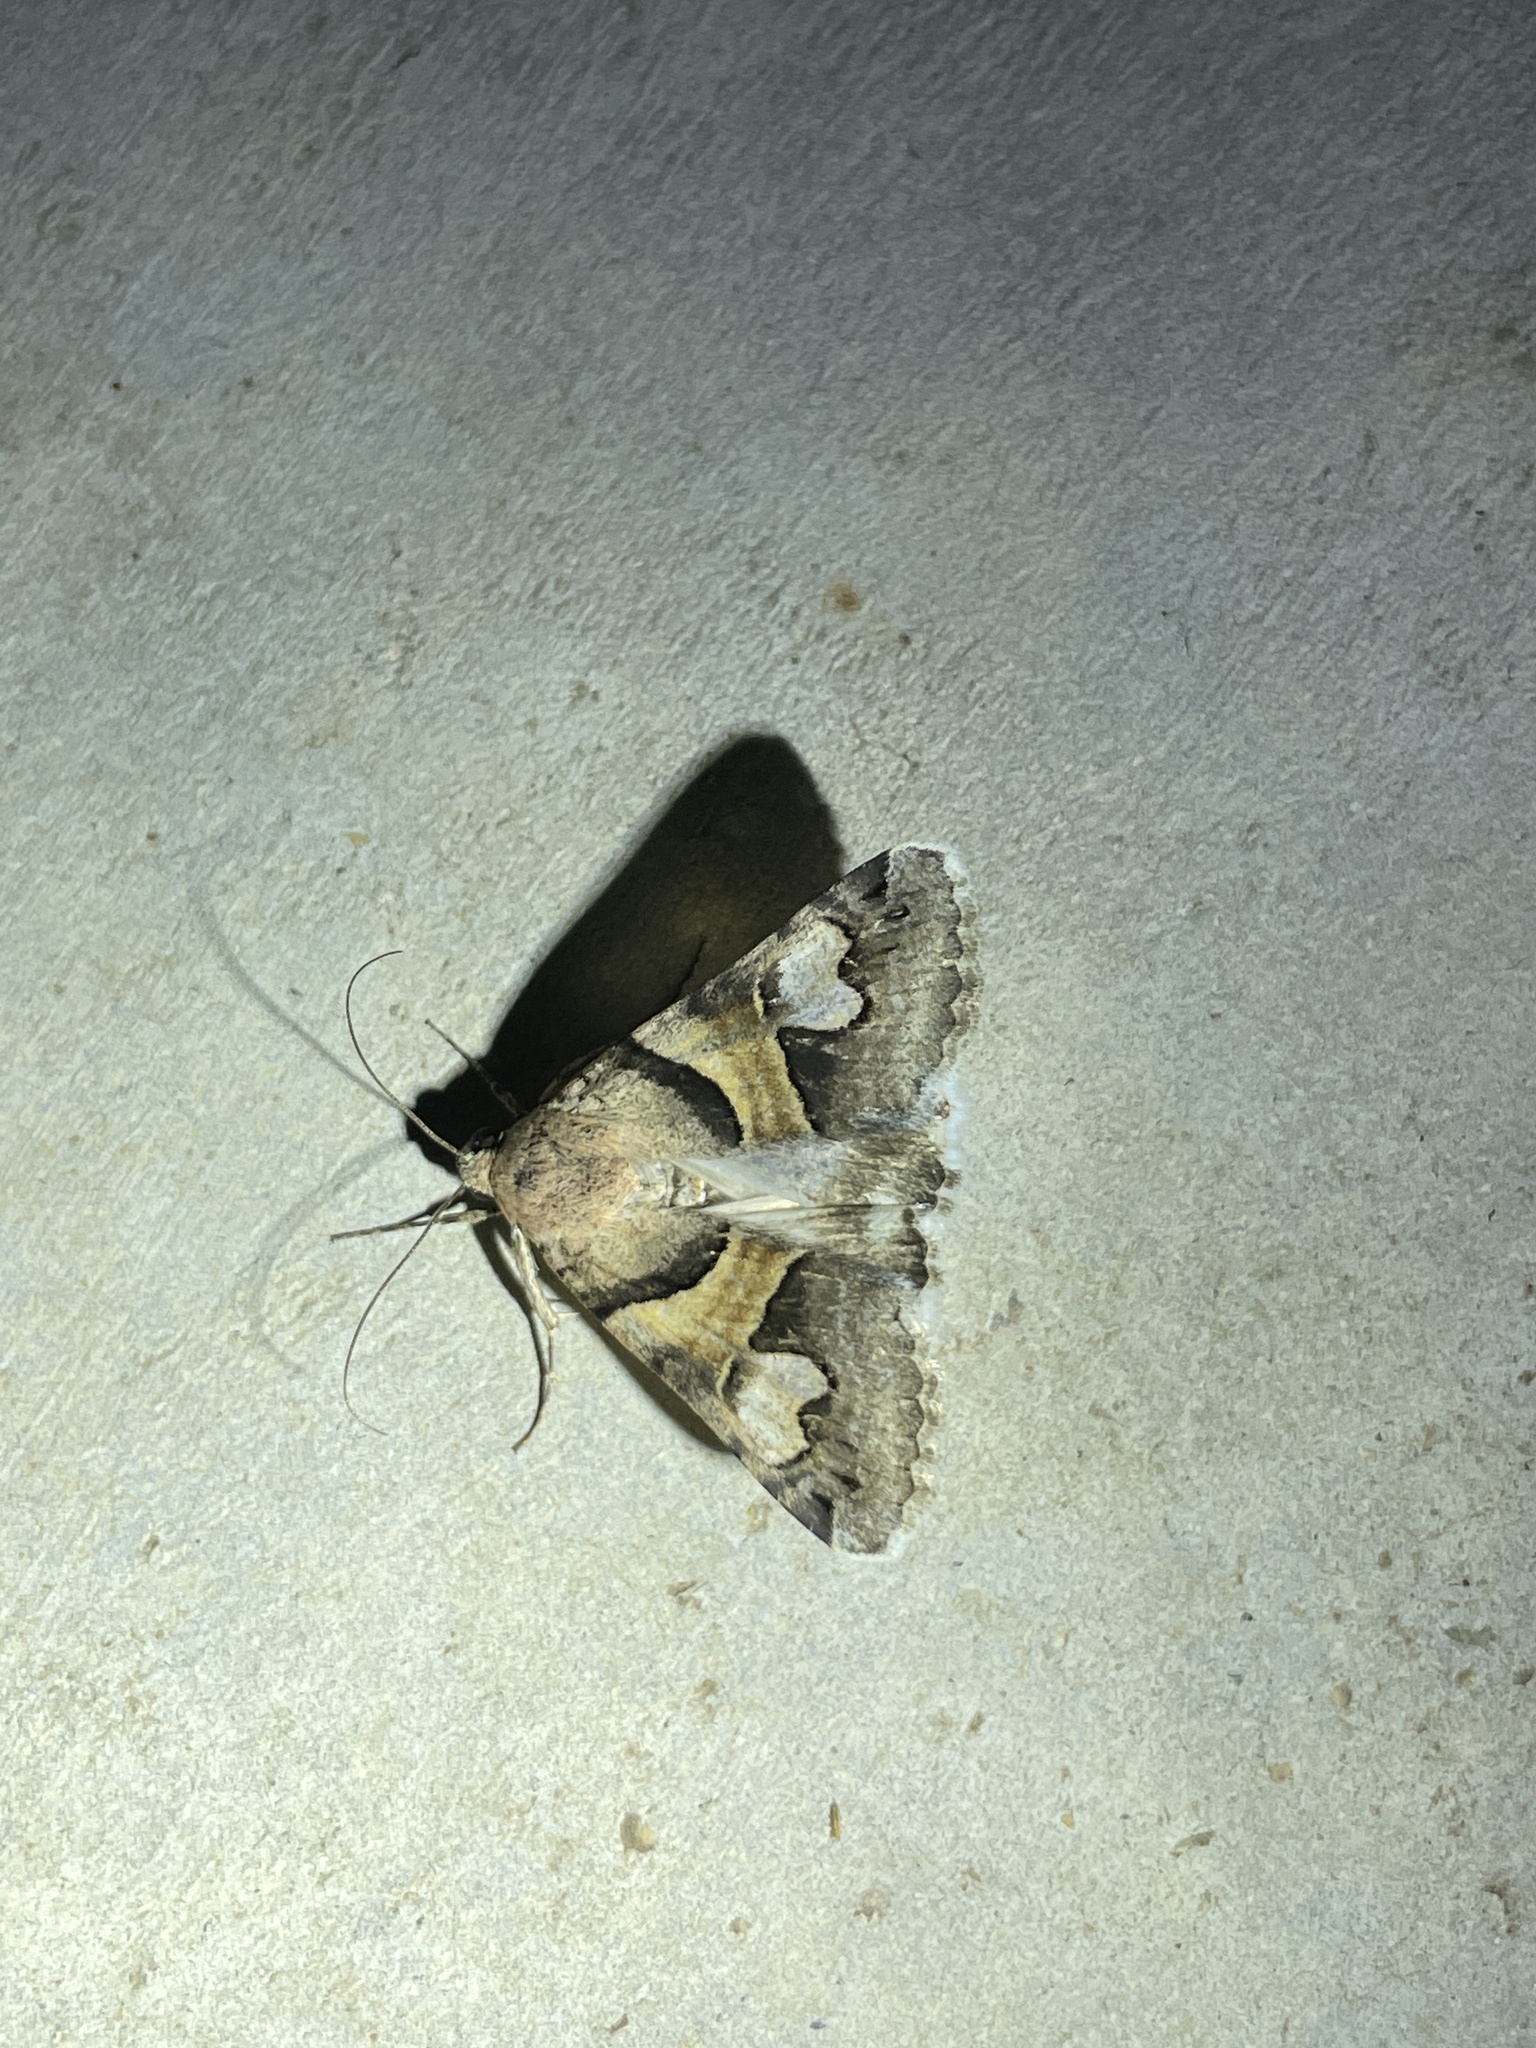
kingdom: Animalia
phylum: Arthropoda
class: Insecta
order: Lepidoptera
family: Erebidae
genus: Drasteria
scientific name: Drasteria pallescens
